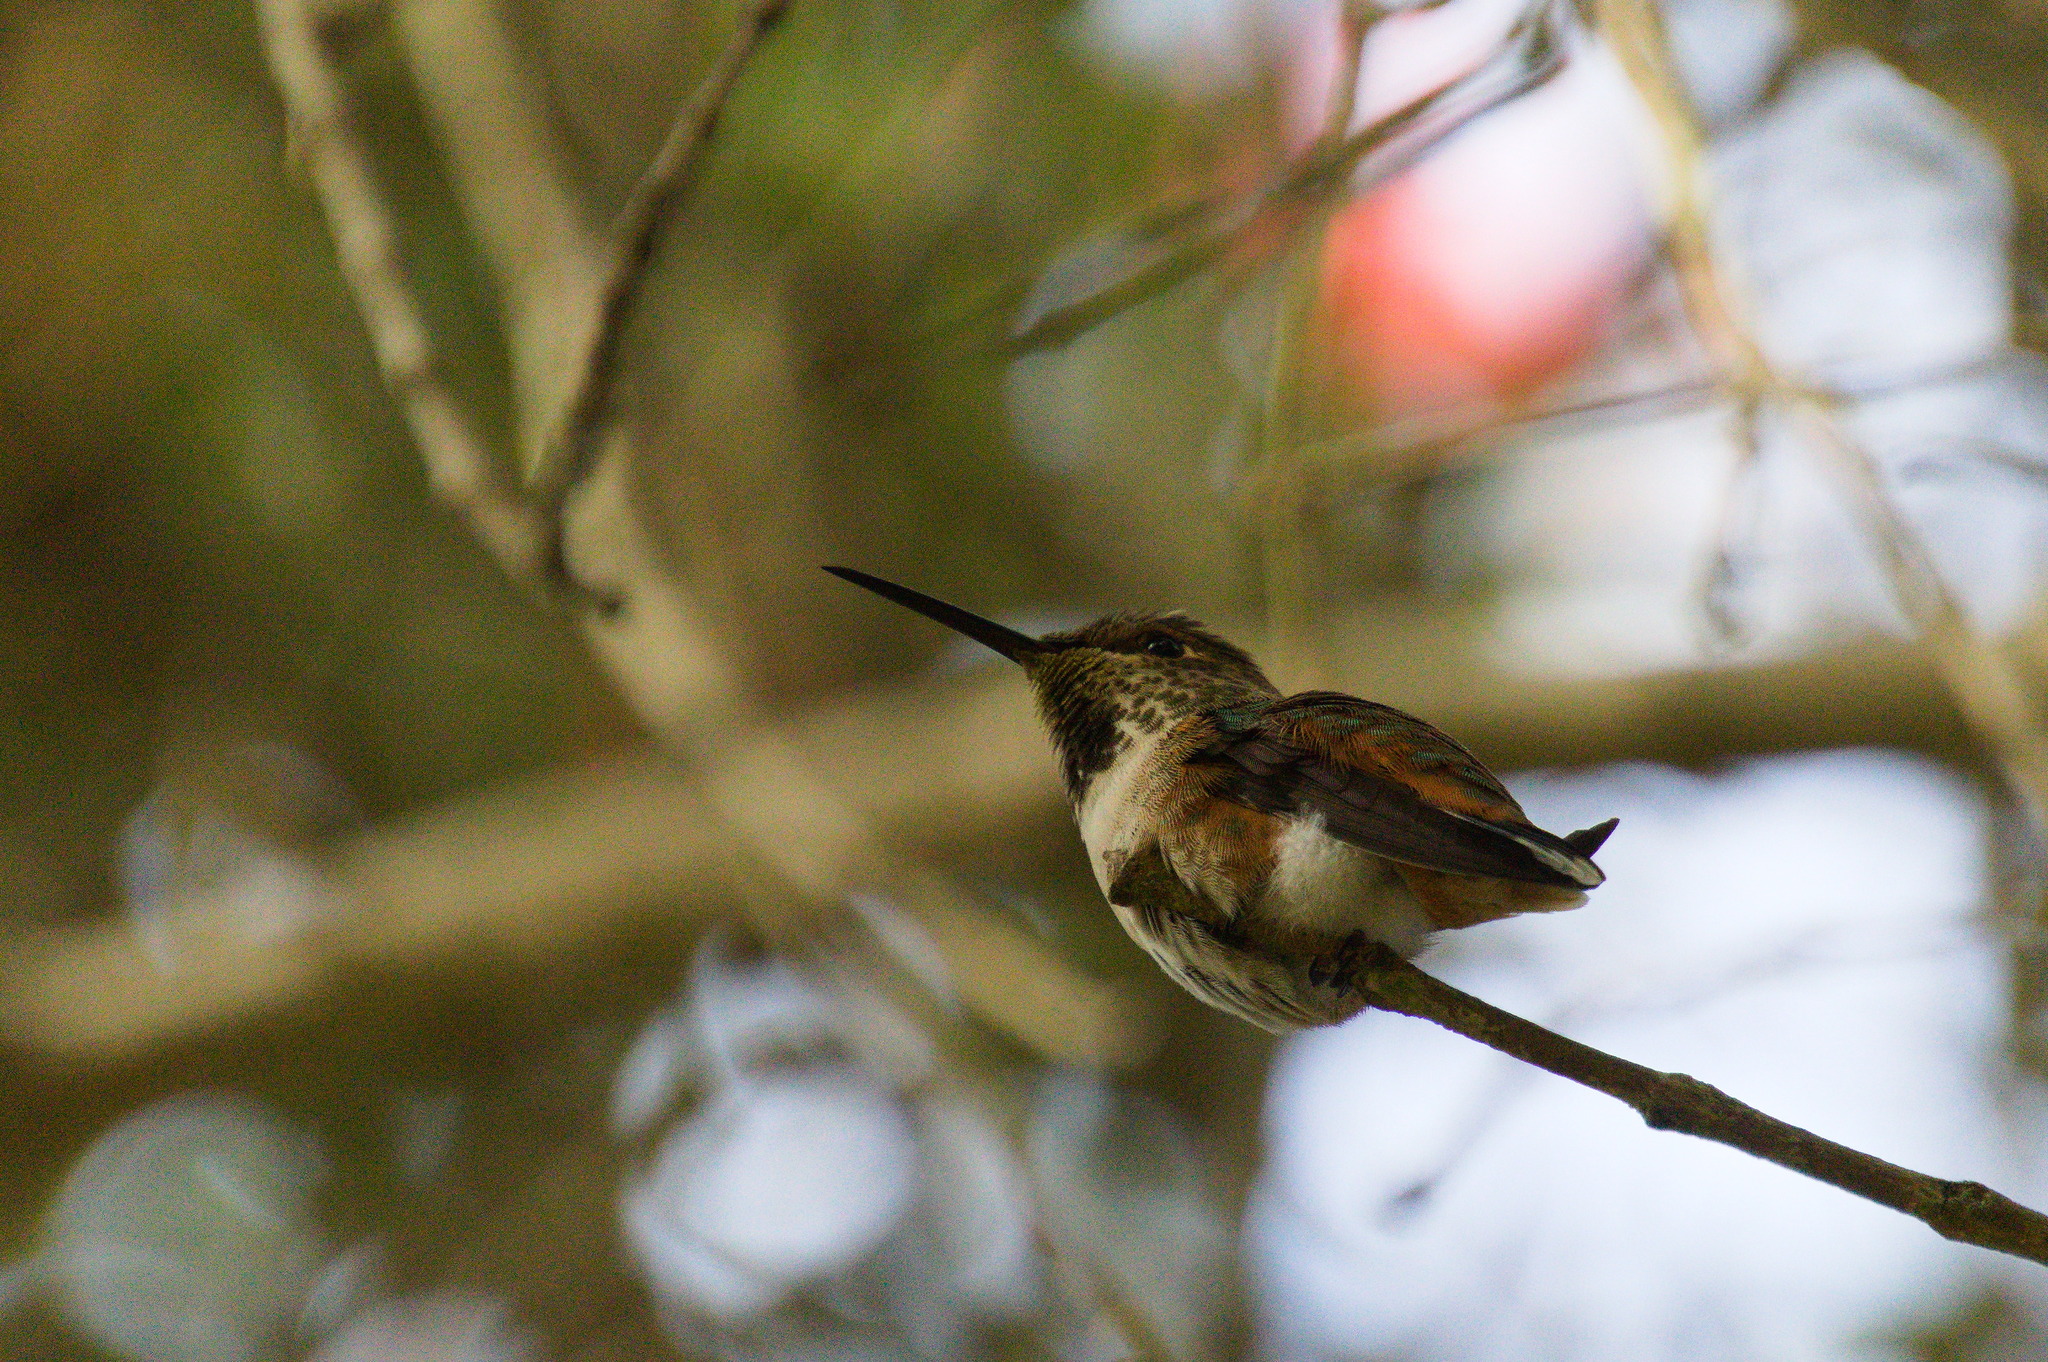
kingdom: Animalia
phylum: Chordata
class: Aves
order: Apodiformes
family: Trochilidae
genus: Selasphorus
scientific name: Selasphorus sasin
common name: Allen's hummingbird
